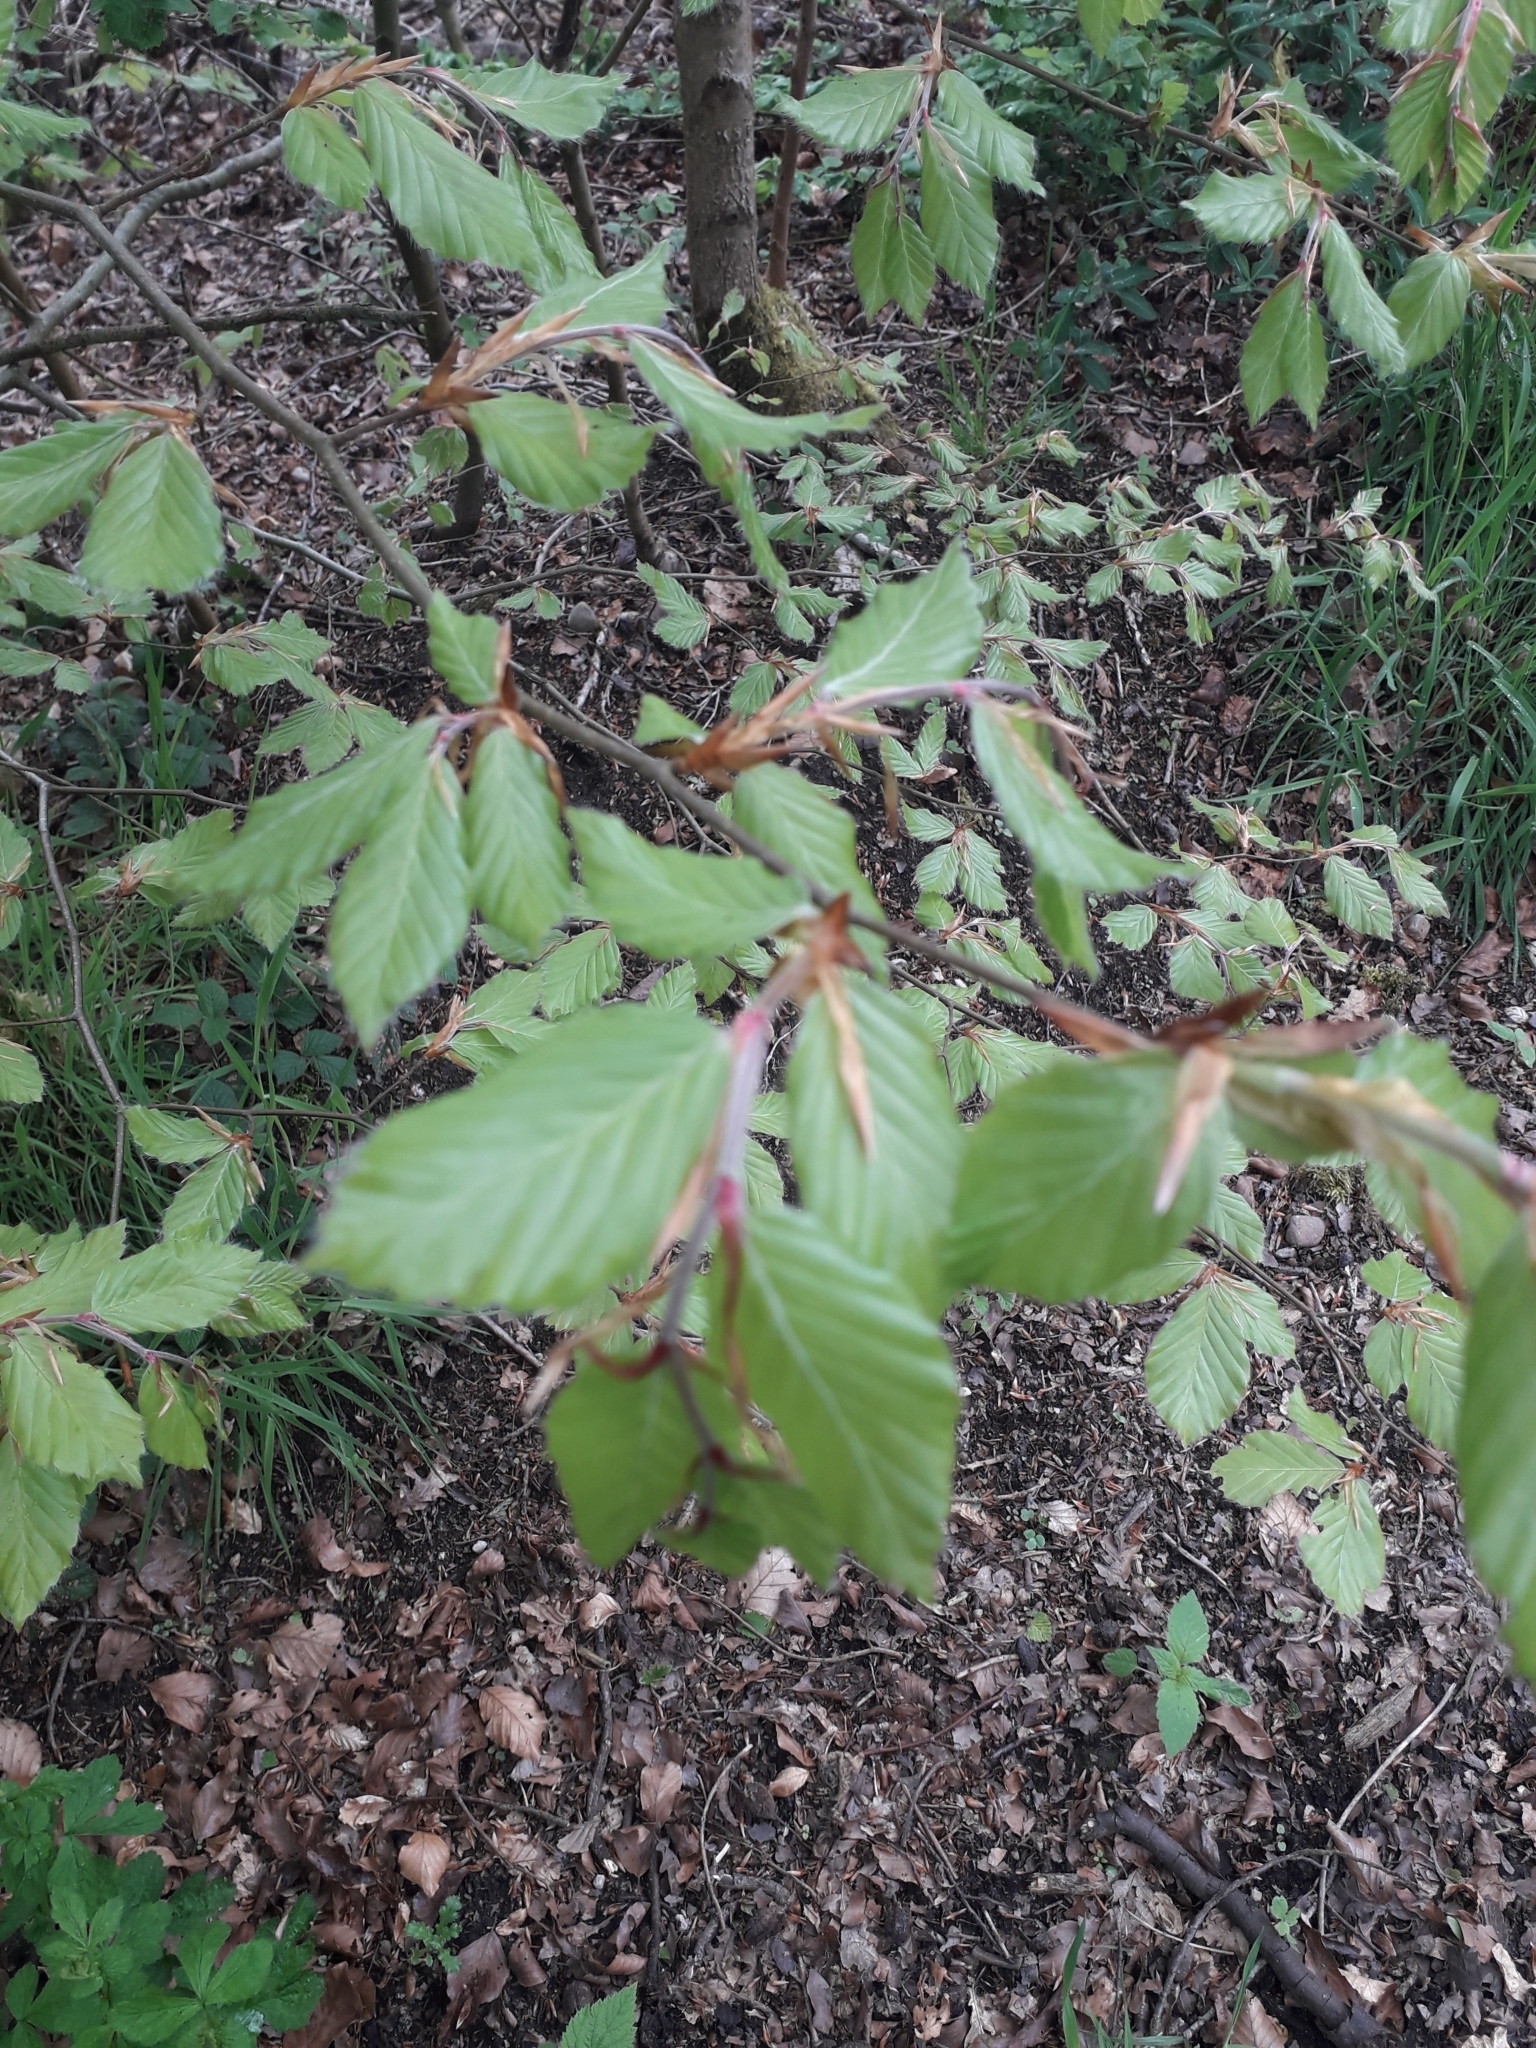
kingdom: Plantae
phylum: Tracheophyta
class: Magnoliopsida
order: Fagales
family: Fagaceae
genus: Fagus
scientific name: Fagus sylvatica
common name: Beech
